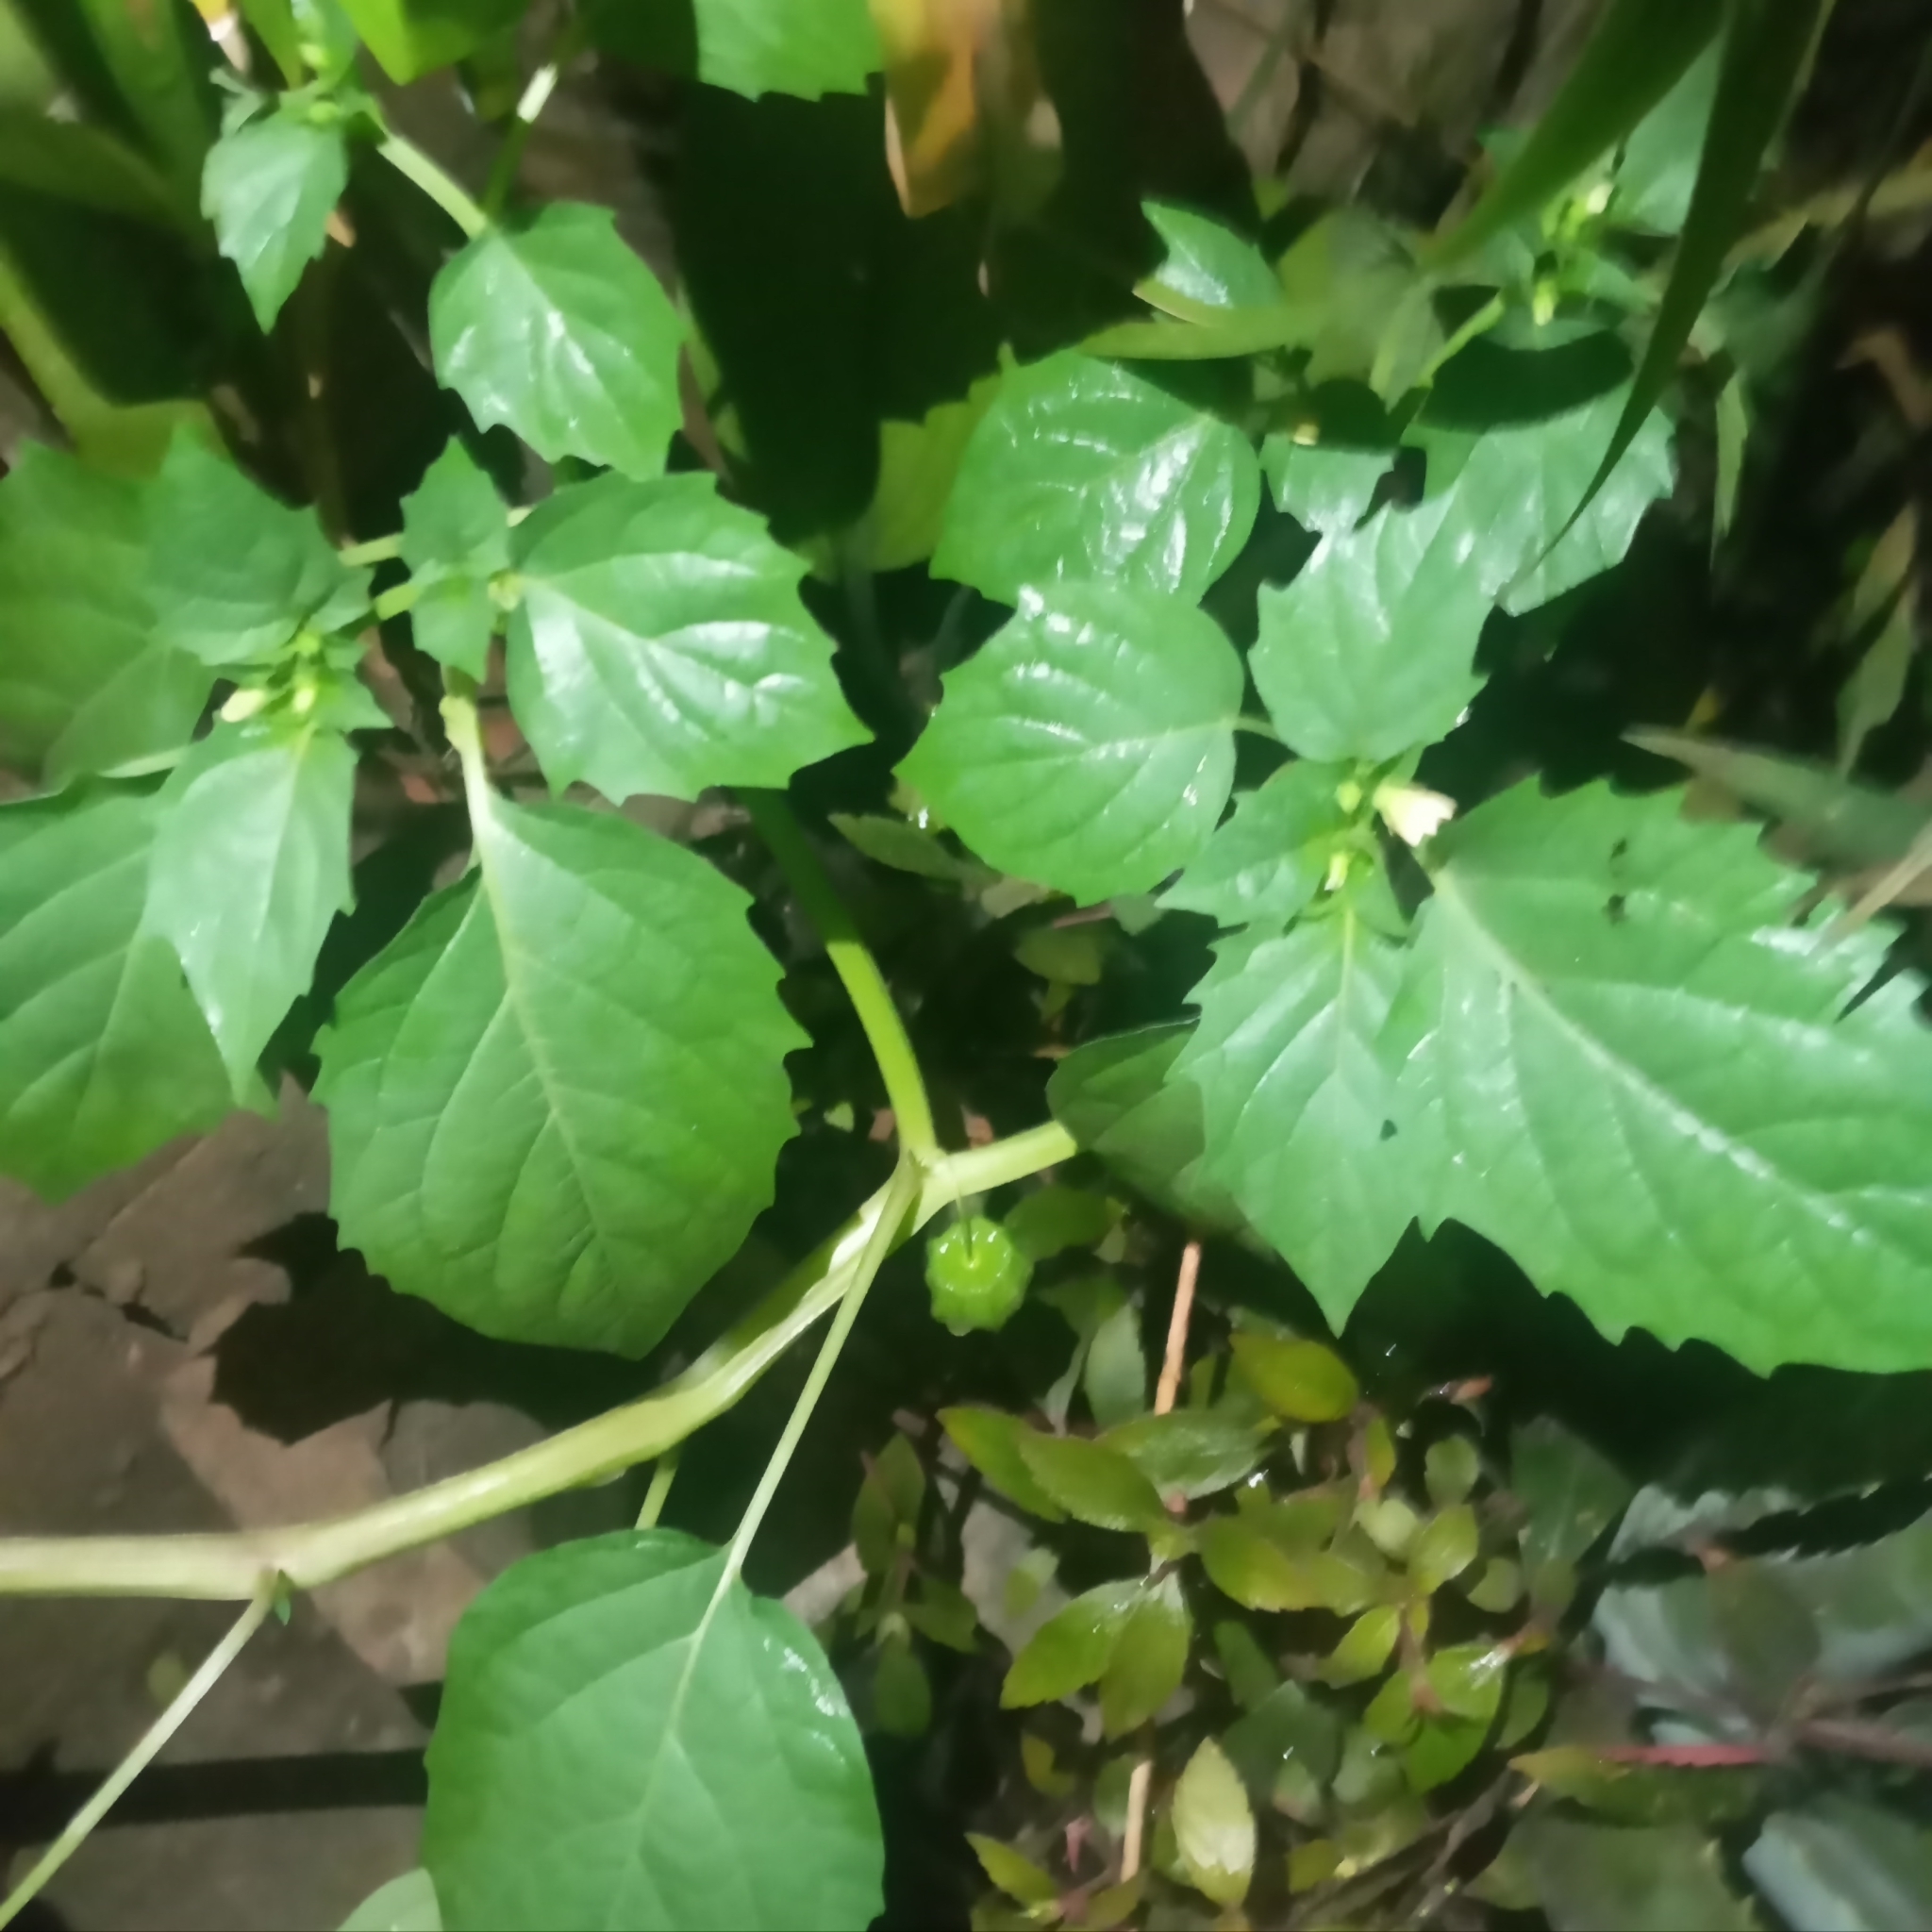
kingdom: Plantae
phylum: Tracheophyta
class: Magnoliopsida
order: Solanales
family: Solanaceae
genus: Physalis
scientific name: Physalis angulata
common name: Angular winter-cherry
